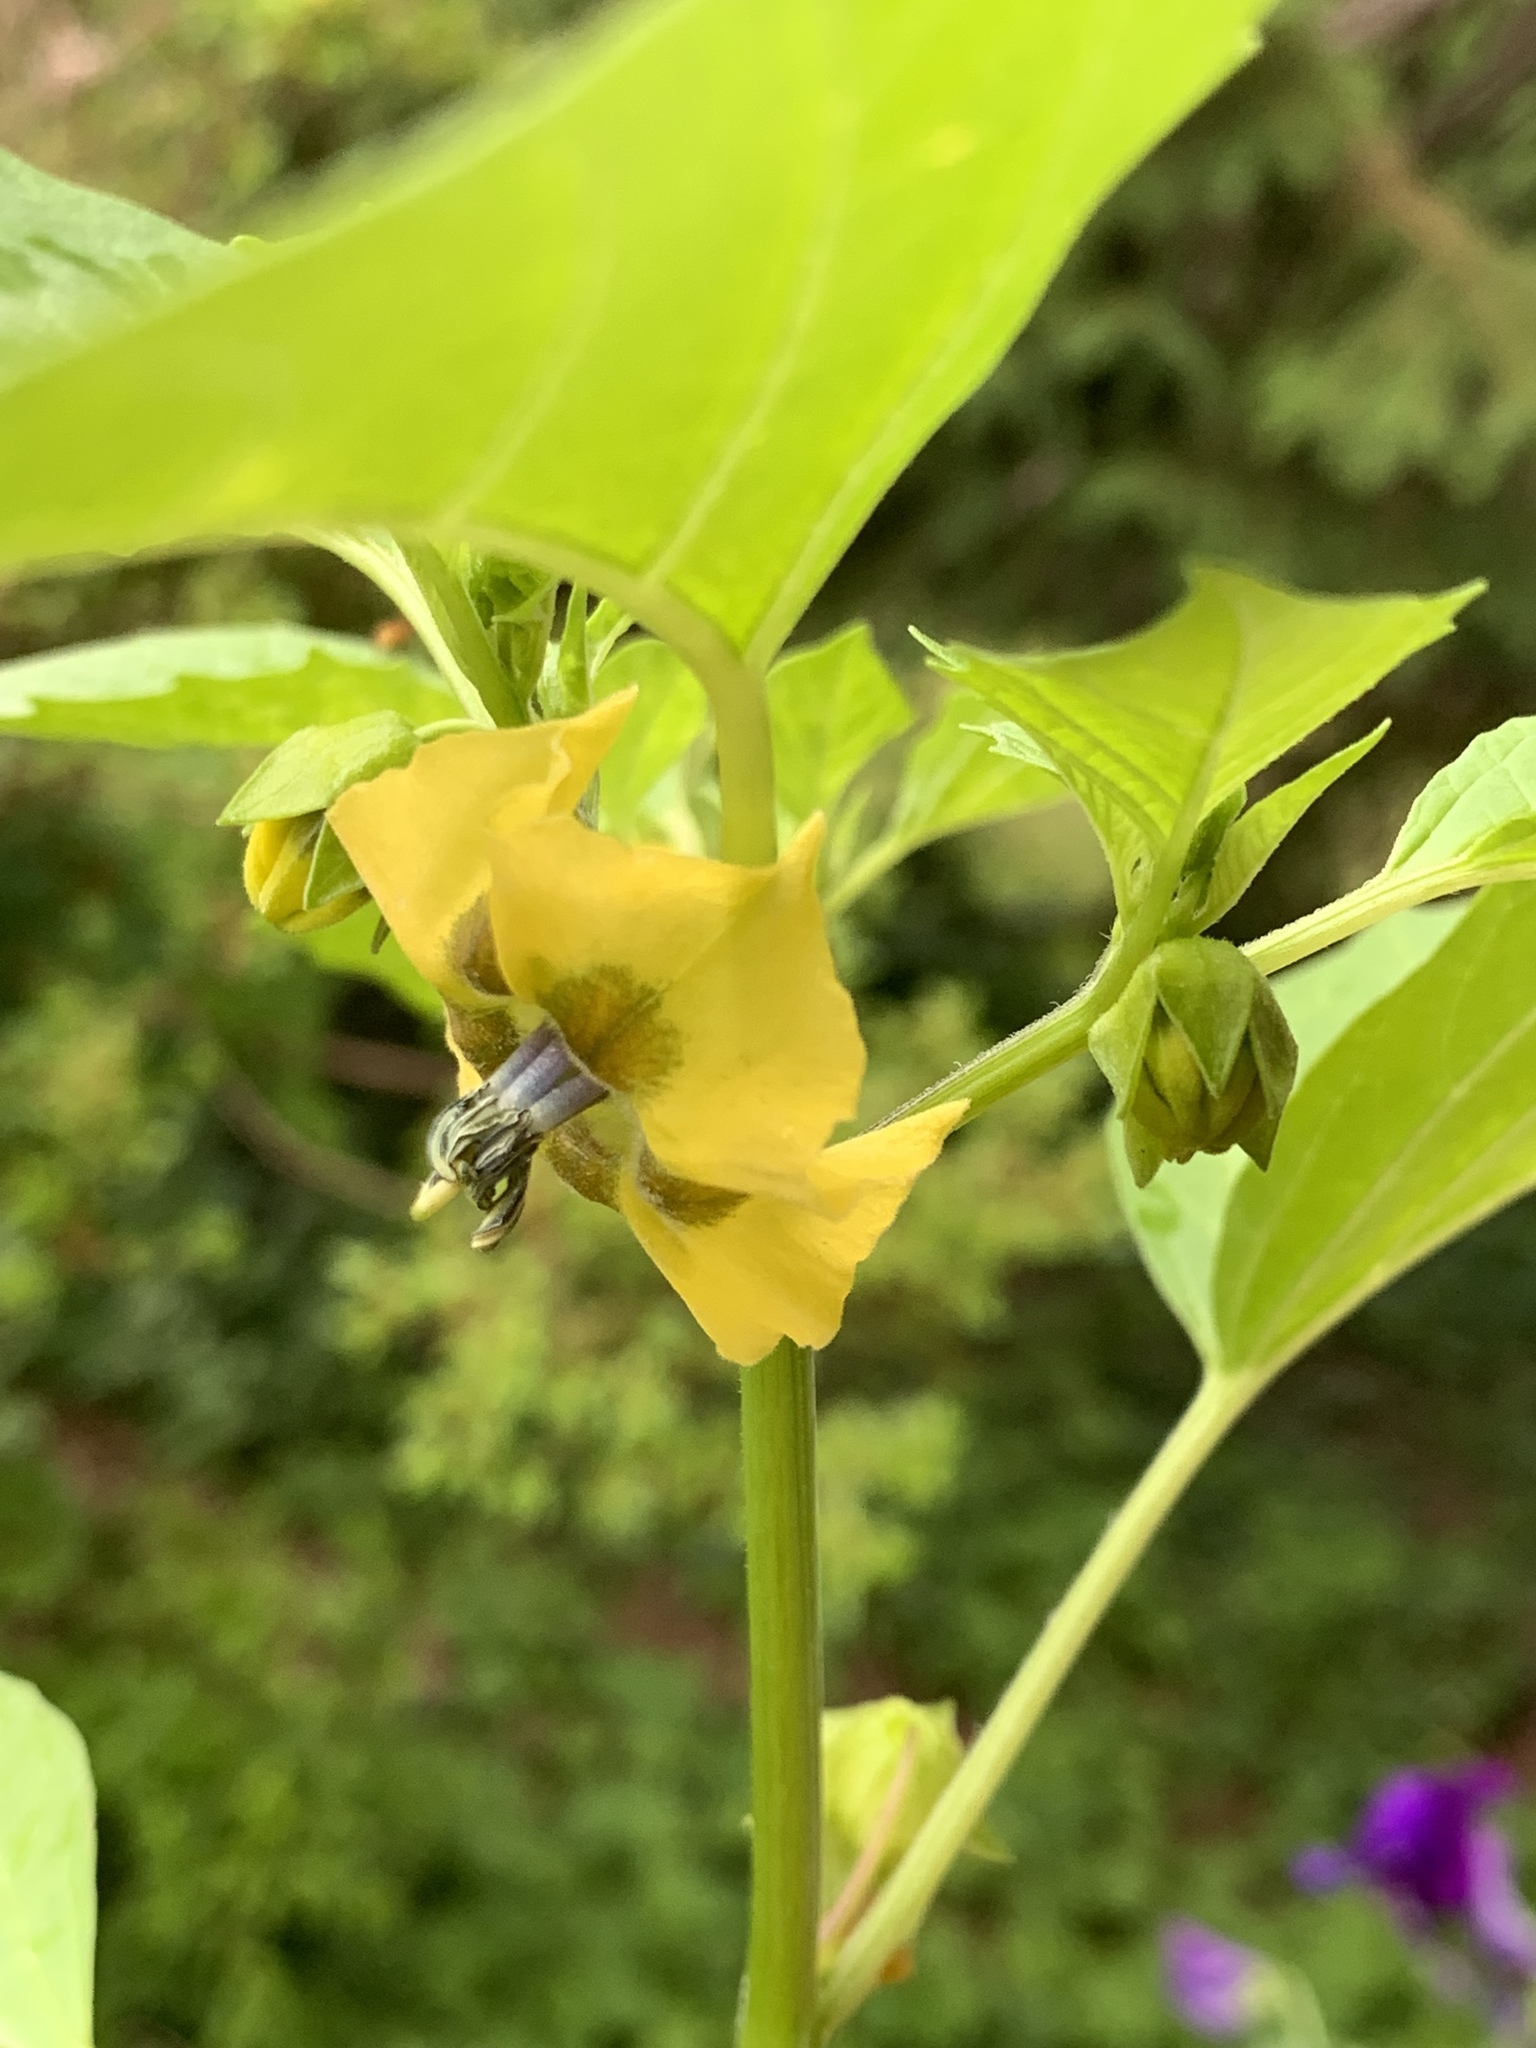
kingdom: Plantae
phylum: Tracheophyta
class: Magnoliopsida
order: Solanales
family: Solanaceae
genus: Physalis
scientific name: Physalis philadelphica
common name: Husk-tomato
